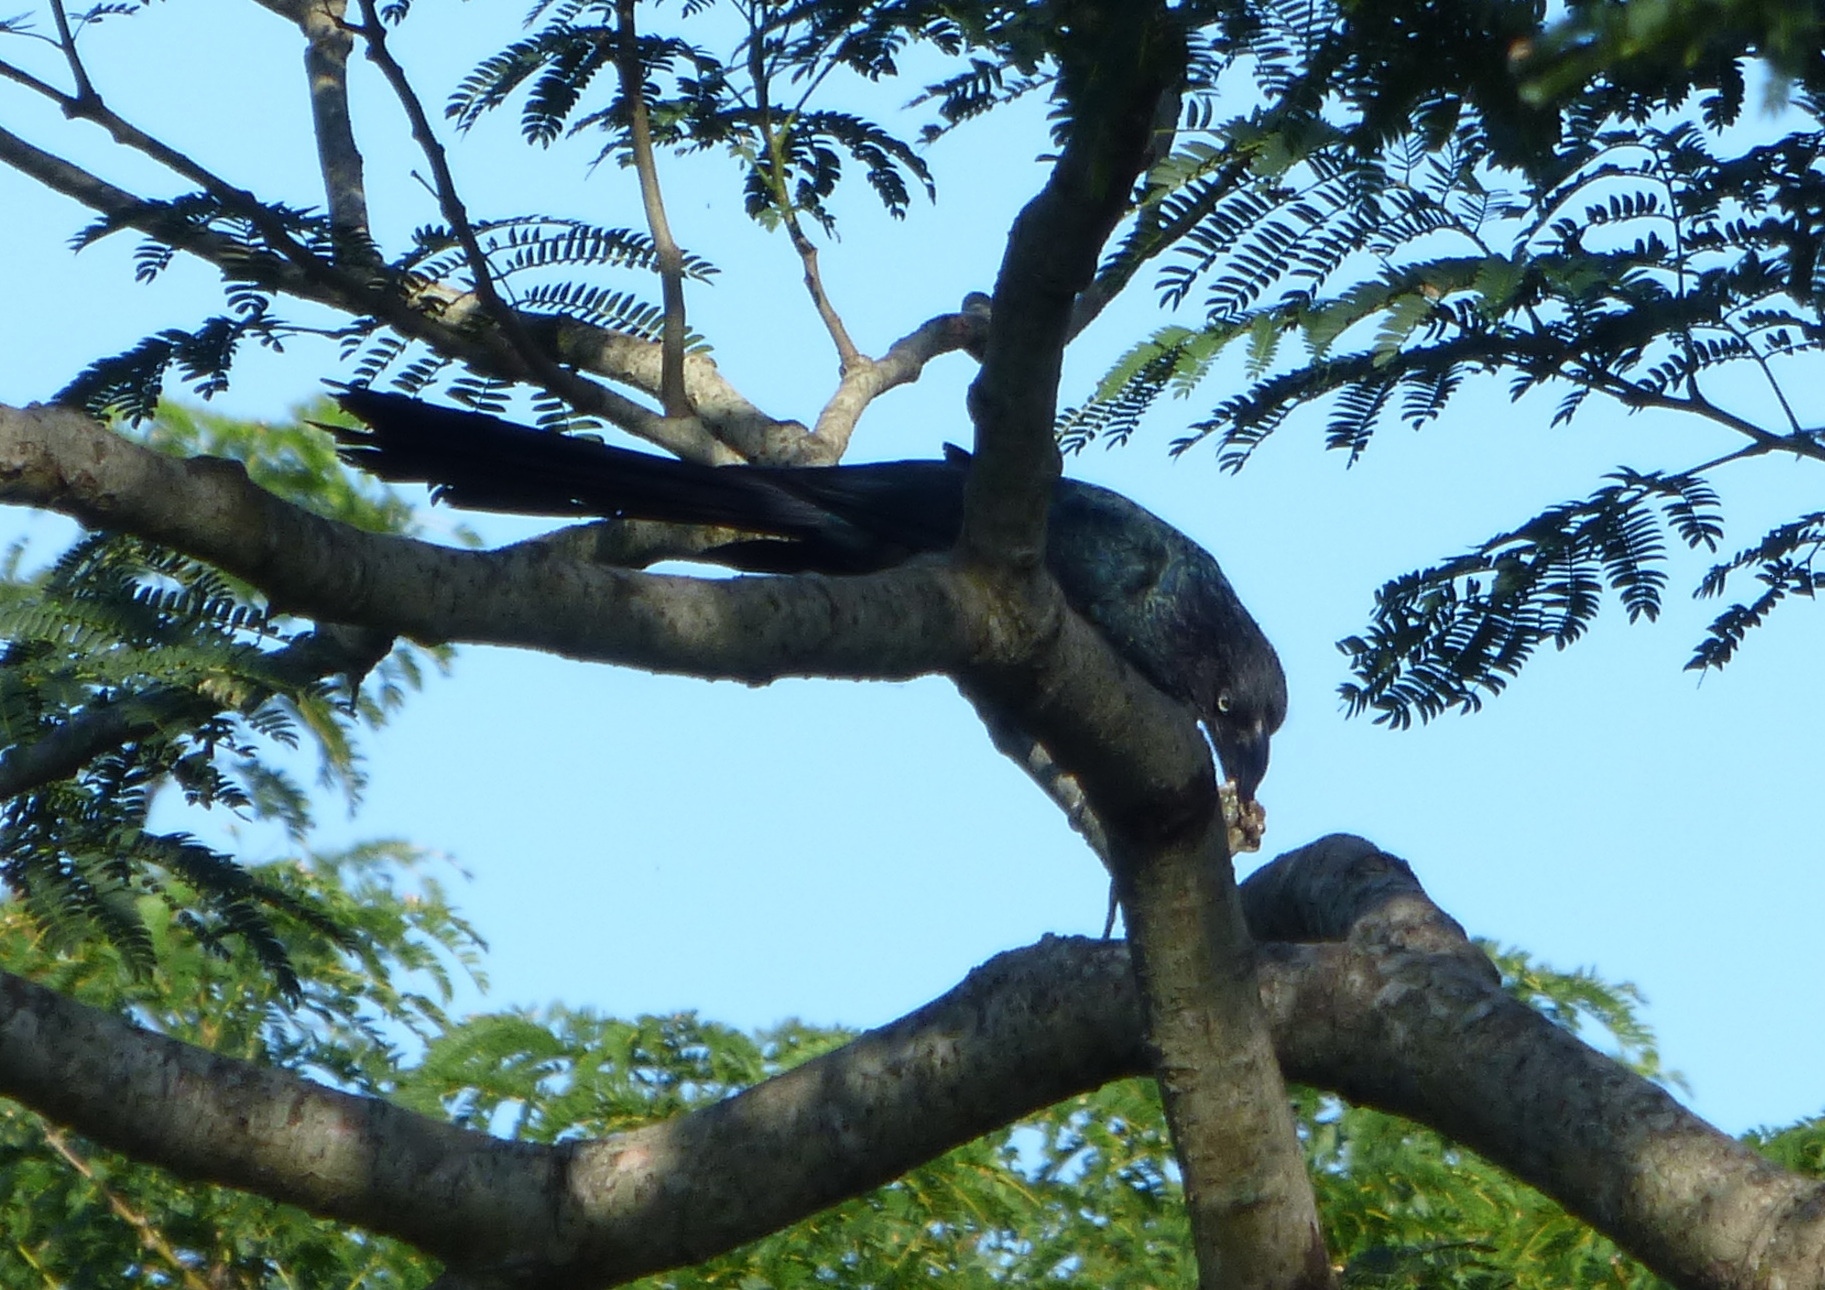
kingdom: Animalia
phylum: Chordata
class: Aves
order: Cuculiformes
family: Cuculidae
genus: Crotophaga
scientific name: Crotophaga major
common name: Greater ani
